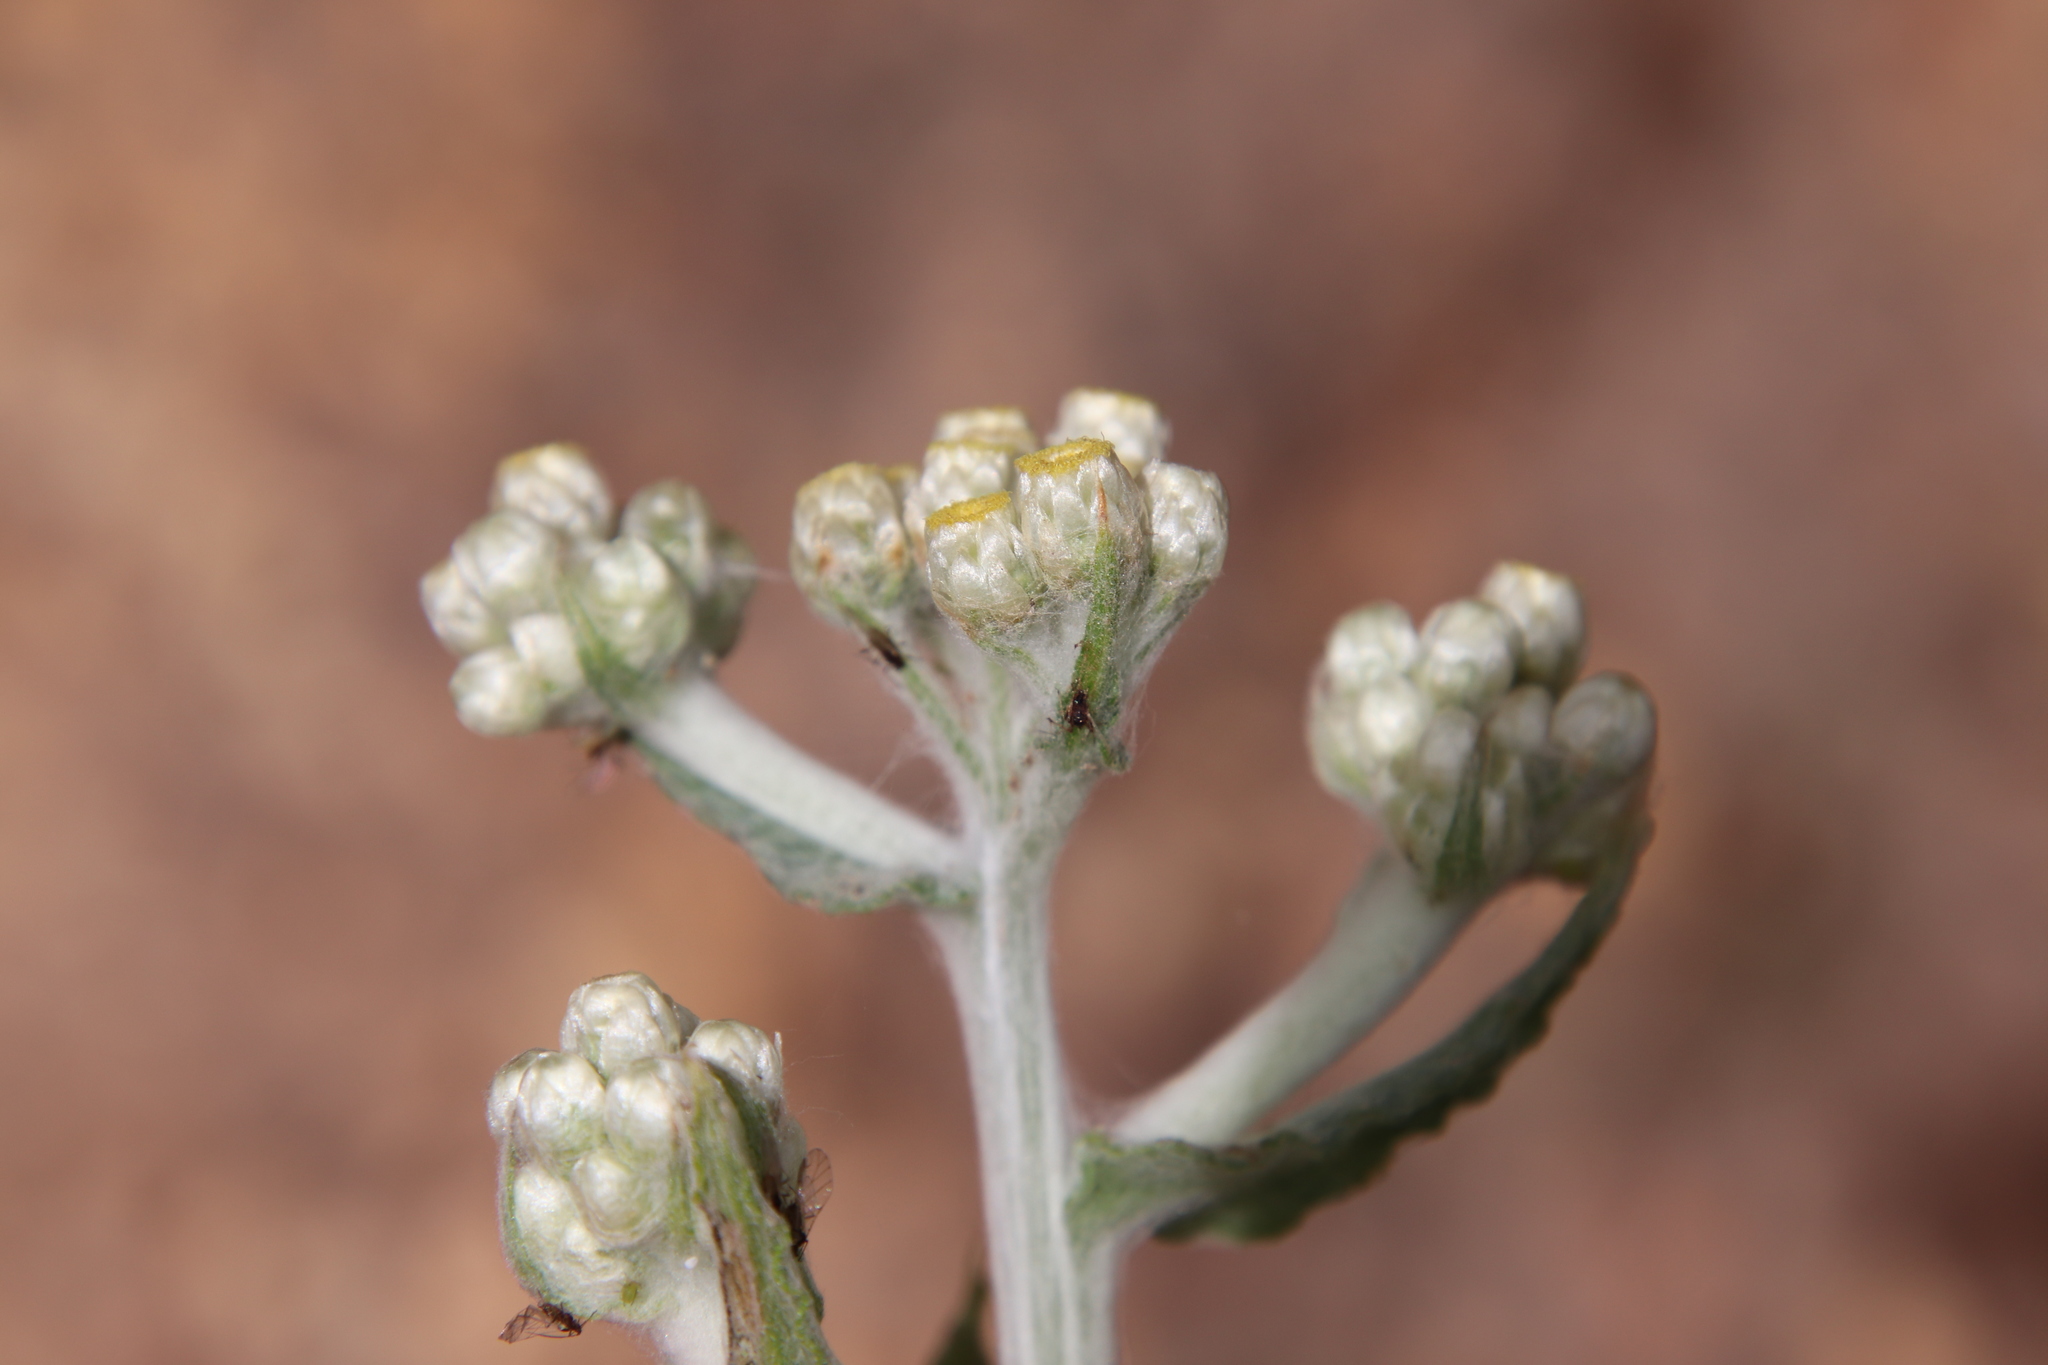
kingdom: Plantae
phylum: Tracheophyta
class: Magnoliopsida
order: Asterales
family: Asteraceae
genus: Pseudognaphalium
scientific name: Pseudognaphalium stramineum
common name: Cotton-batting-plant
